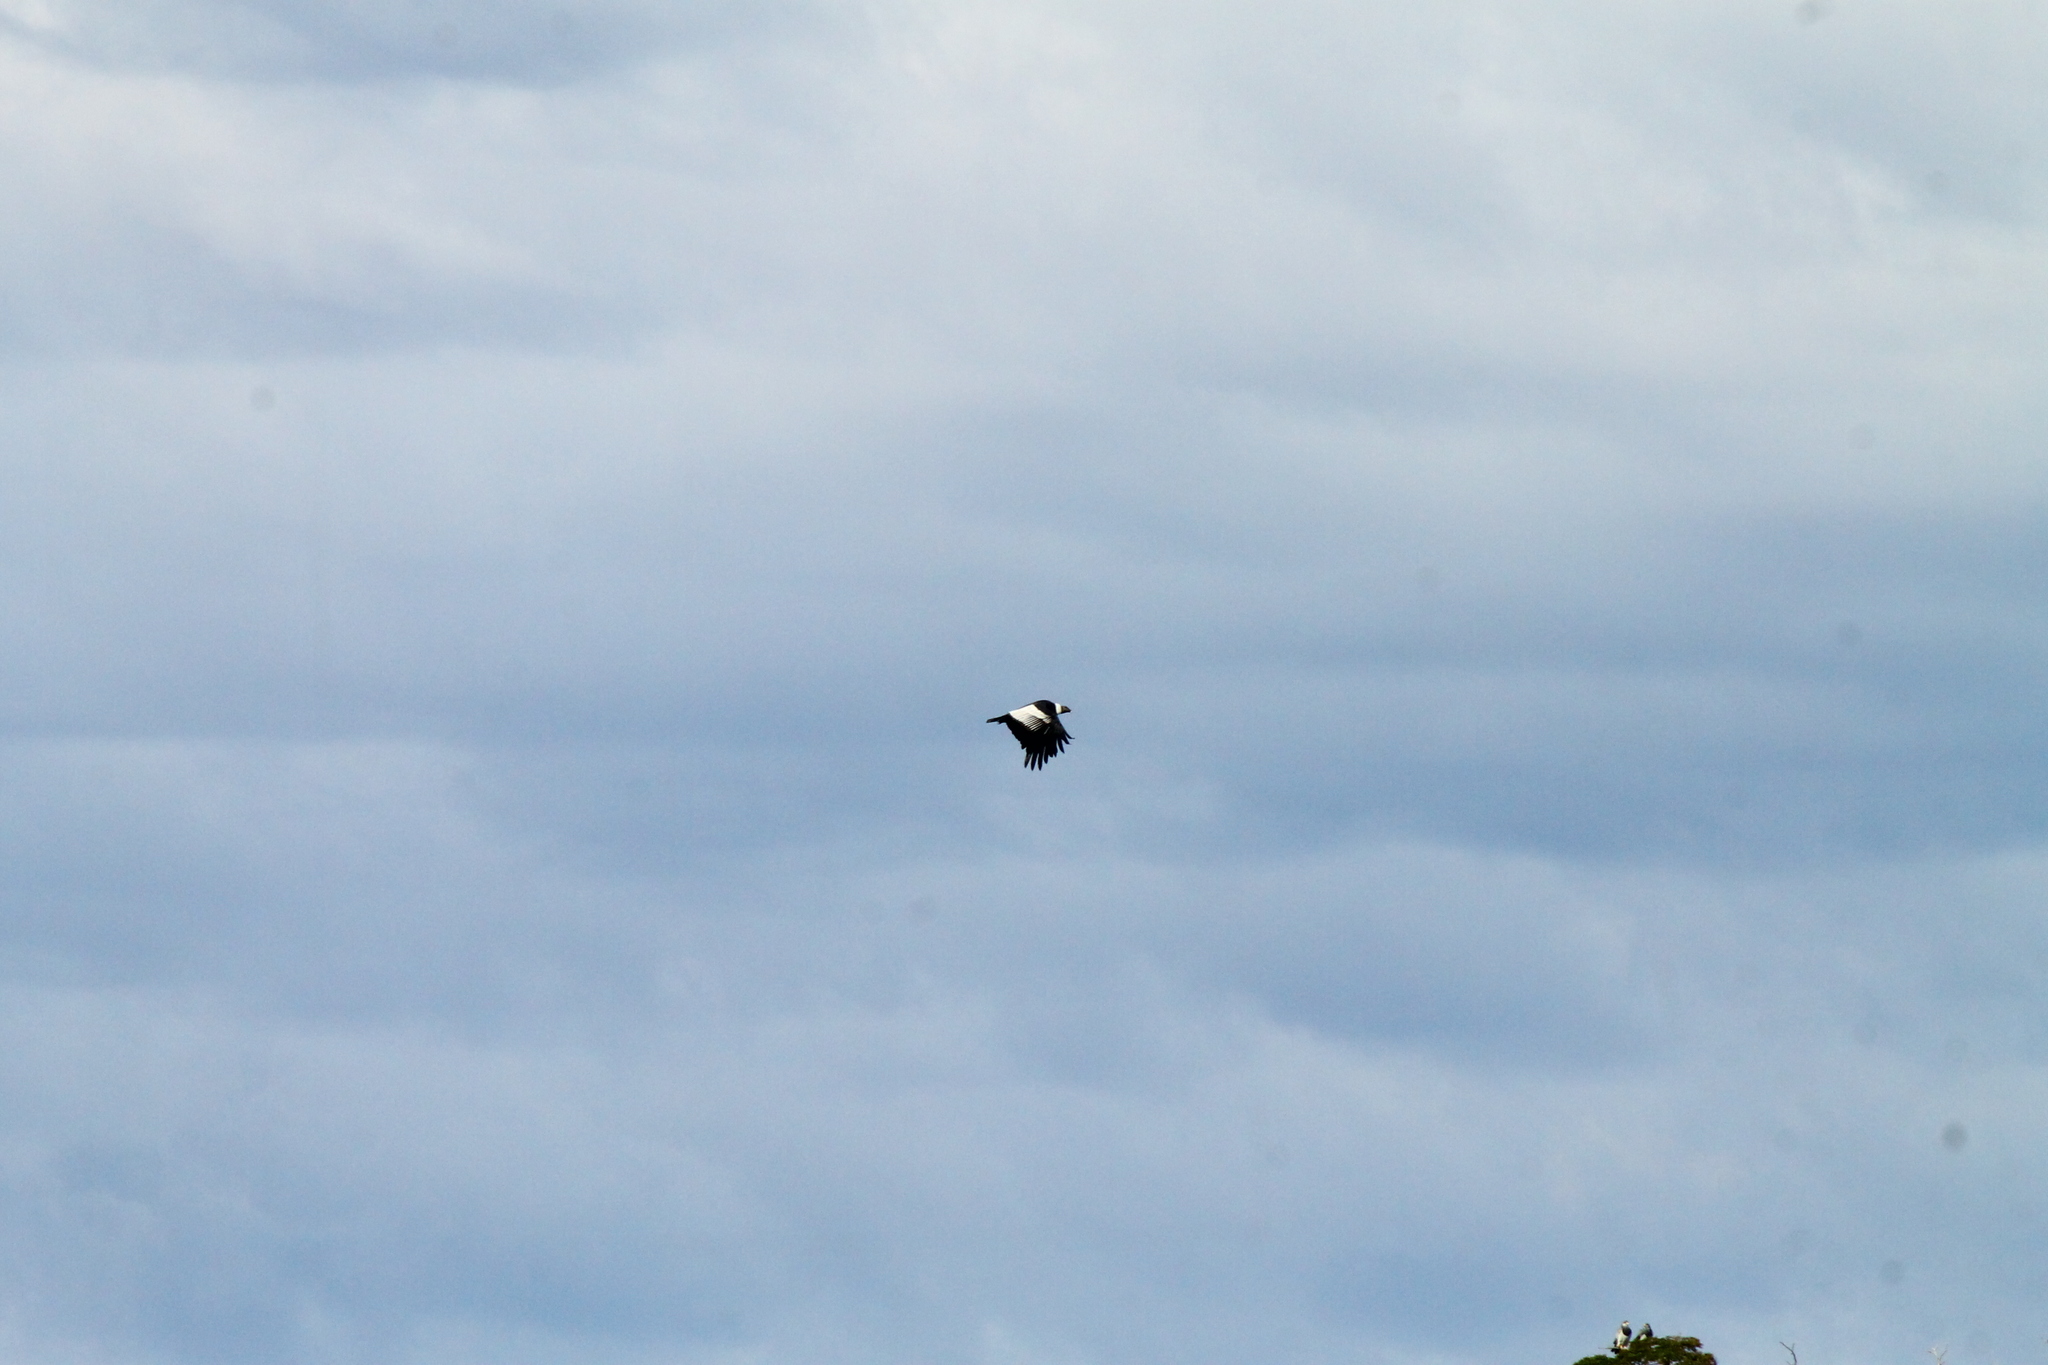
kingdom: Animalia
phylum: Chordata
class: Aves
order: Accipitriformes
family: Cathartidae
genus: Vultur
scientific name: Vultur gryphus
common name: Andean condor
